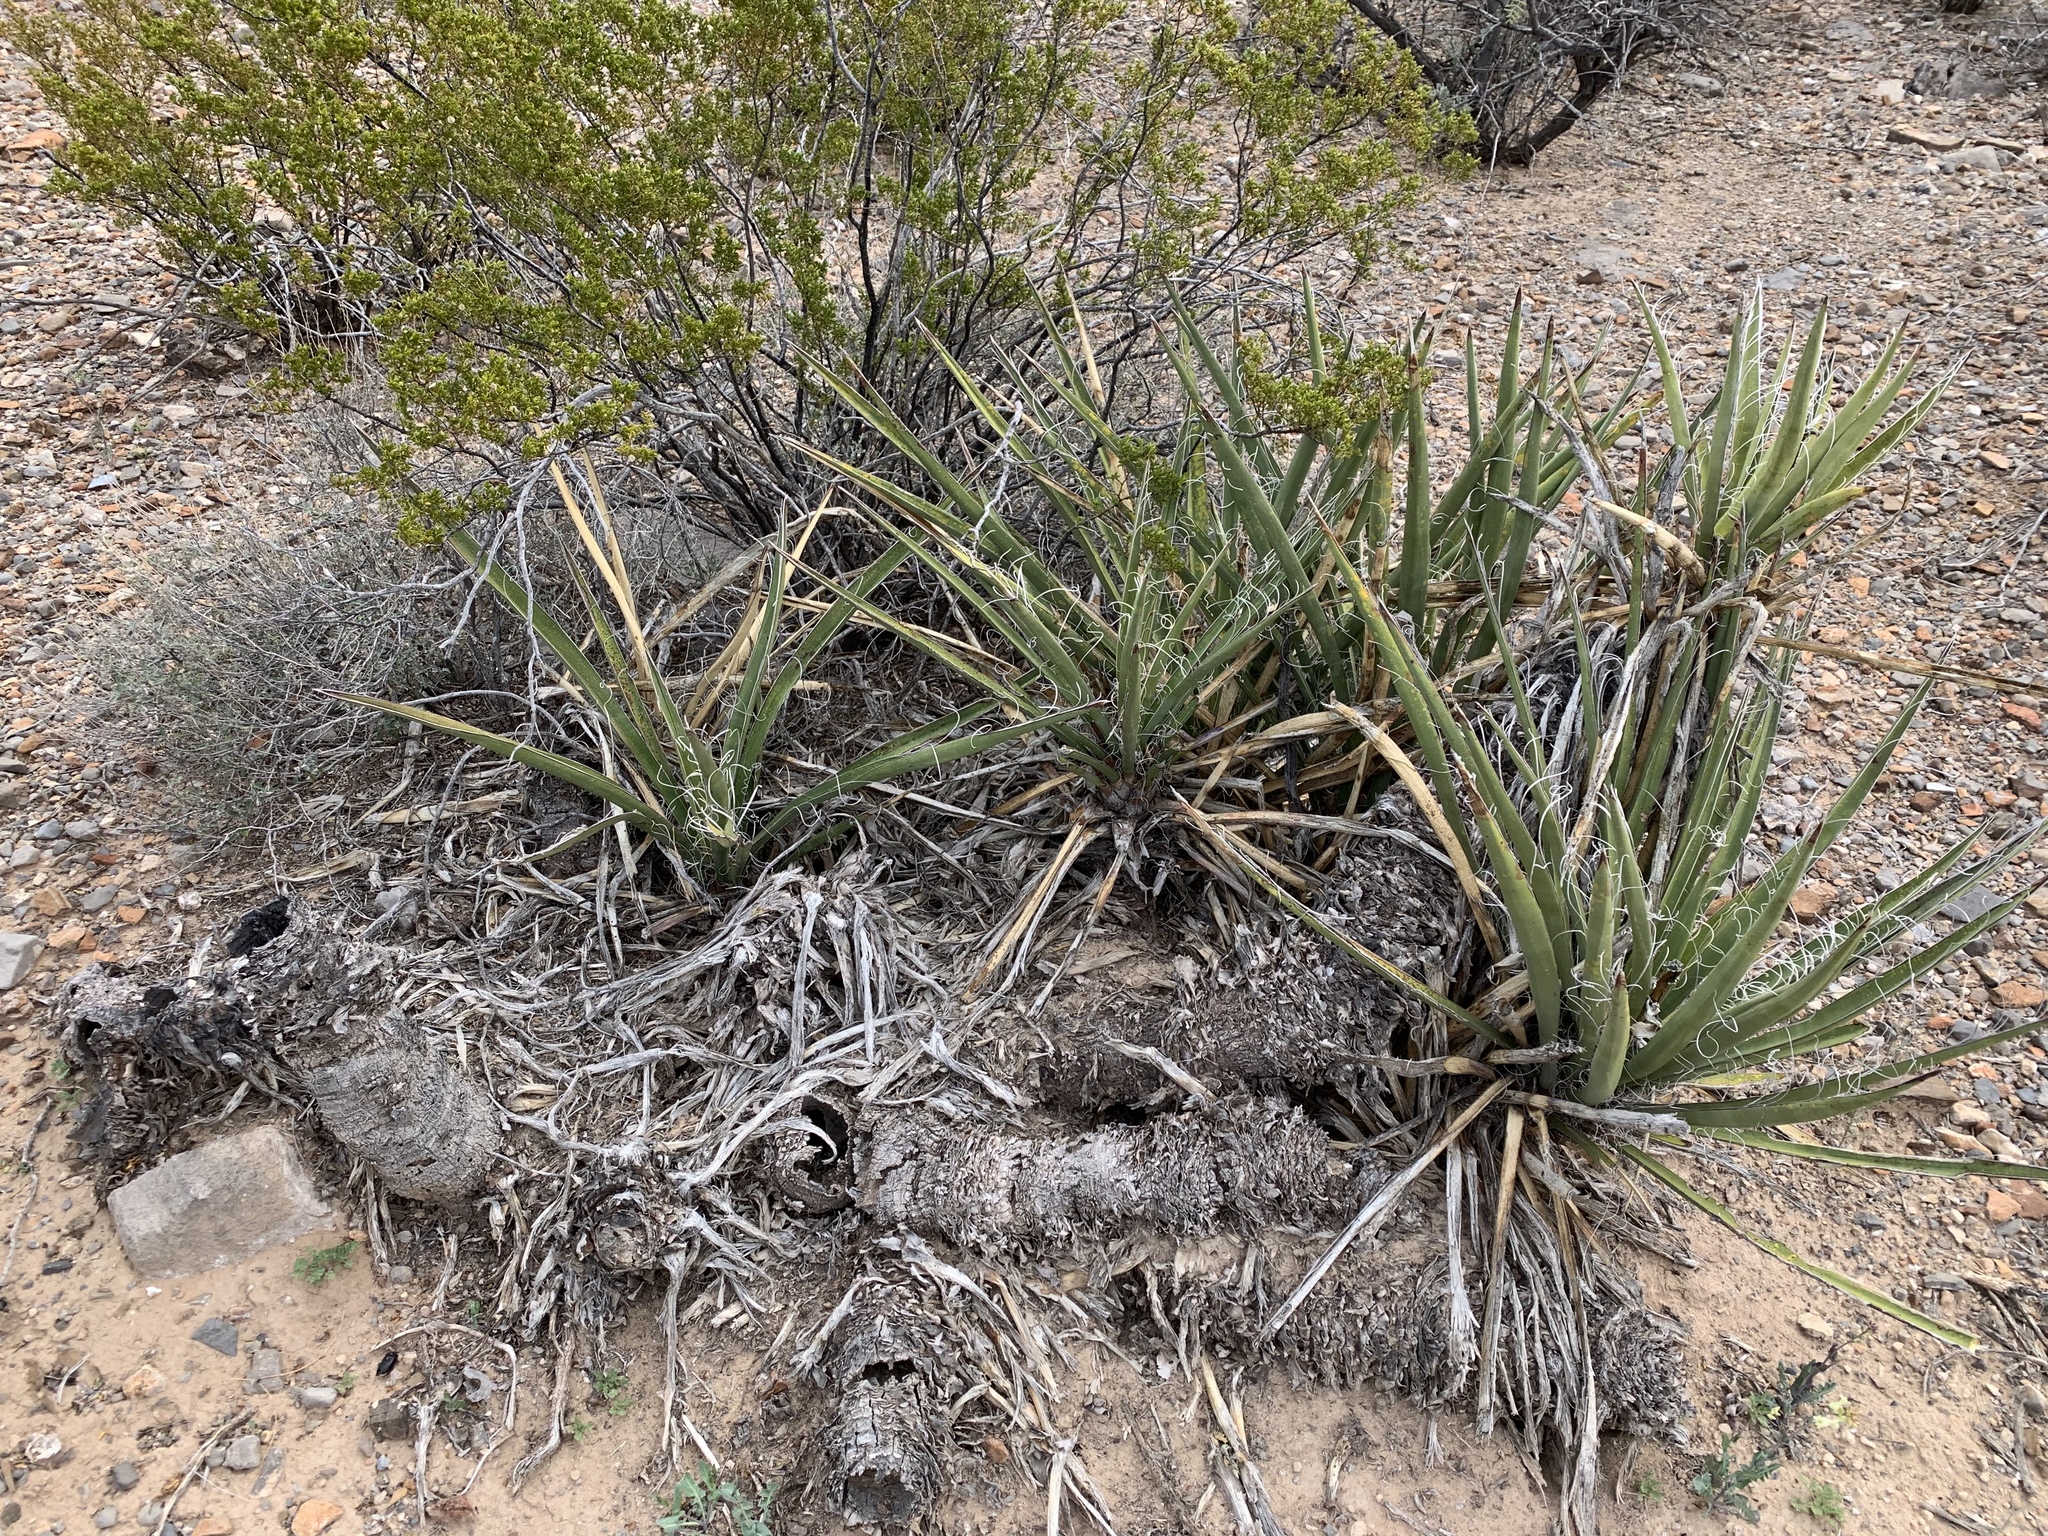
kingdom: Plantae
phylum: Tracheophyta
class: Liliopsida
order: Asparagales
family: Asparagaceae
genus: Yucca
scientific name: Yucca baccata
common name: Banana yucca
